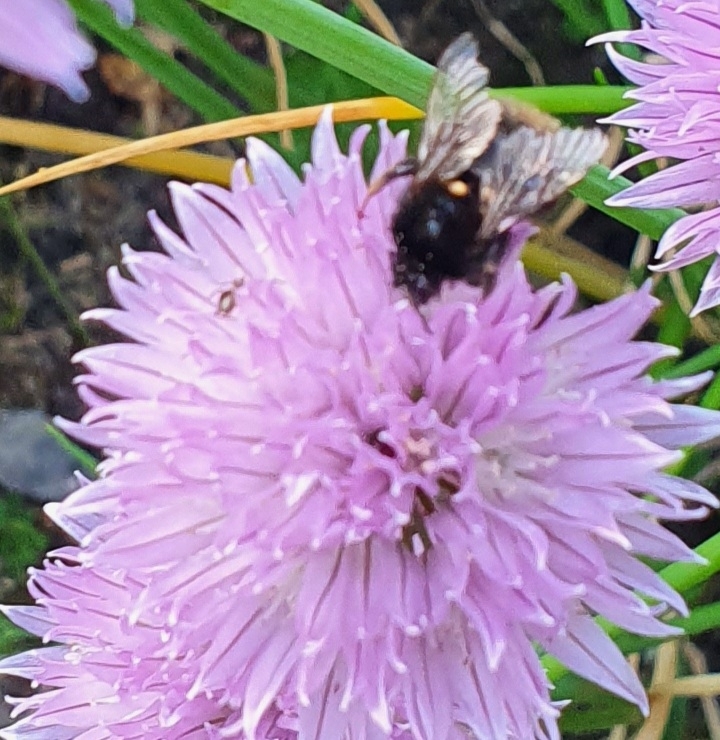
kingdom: Animalia
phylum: Arthropoda
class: Insecta
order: Hymenoptera
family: Apidae
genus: Bombus
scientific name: Bombus lapidarius
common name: Large red-tailed humble-bee
